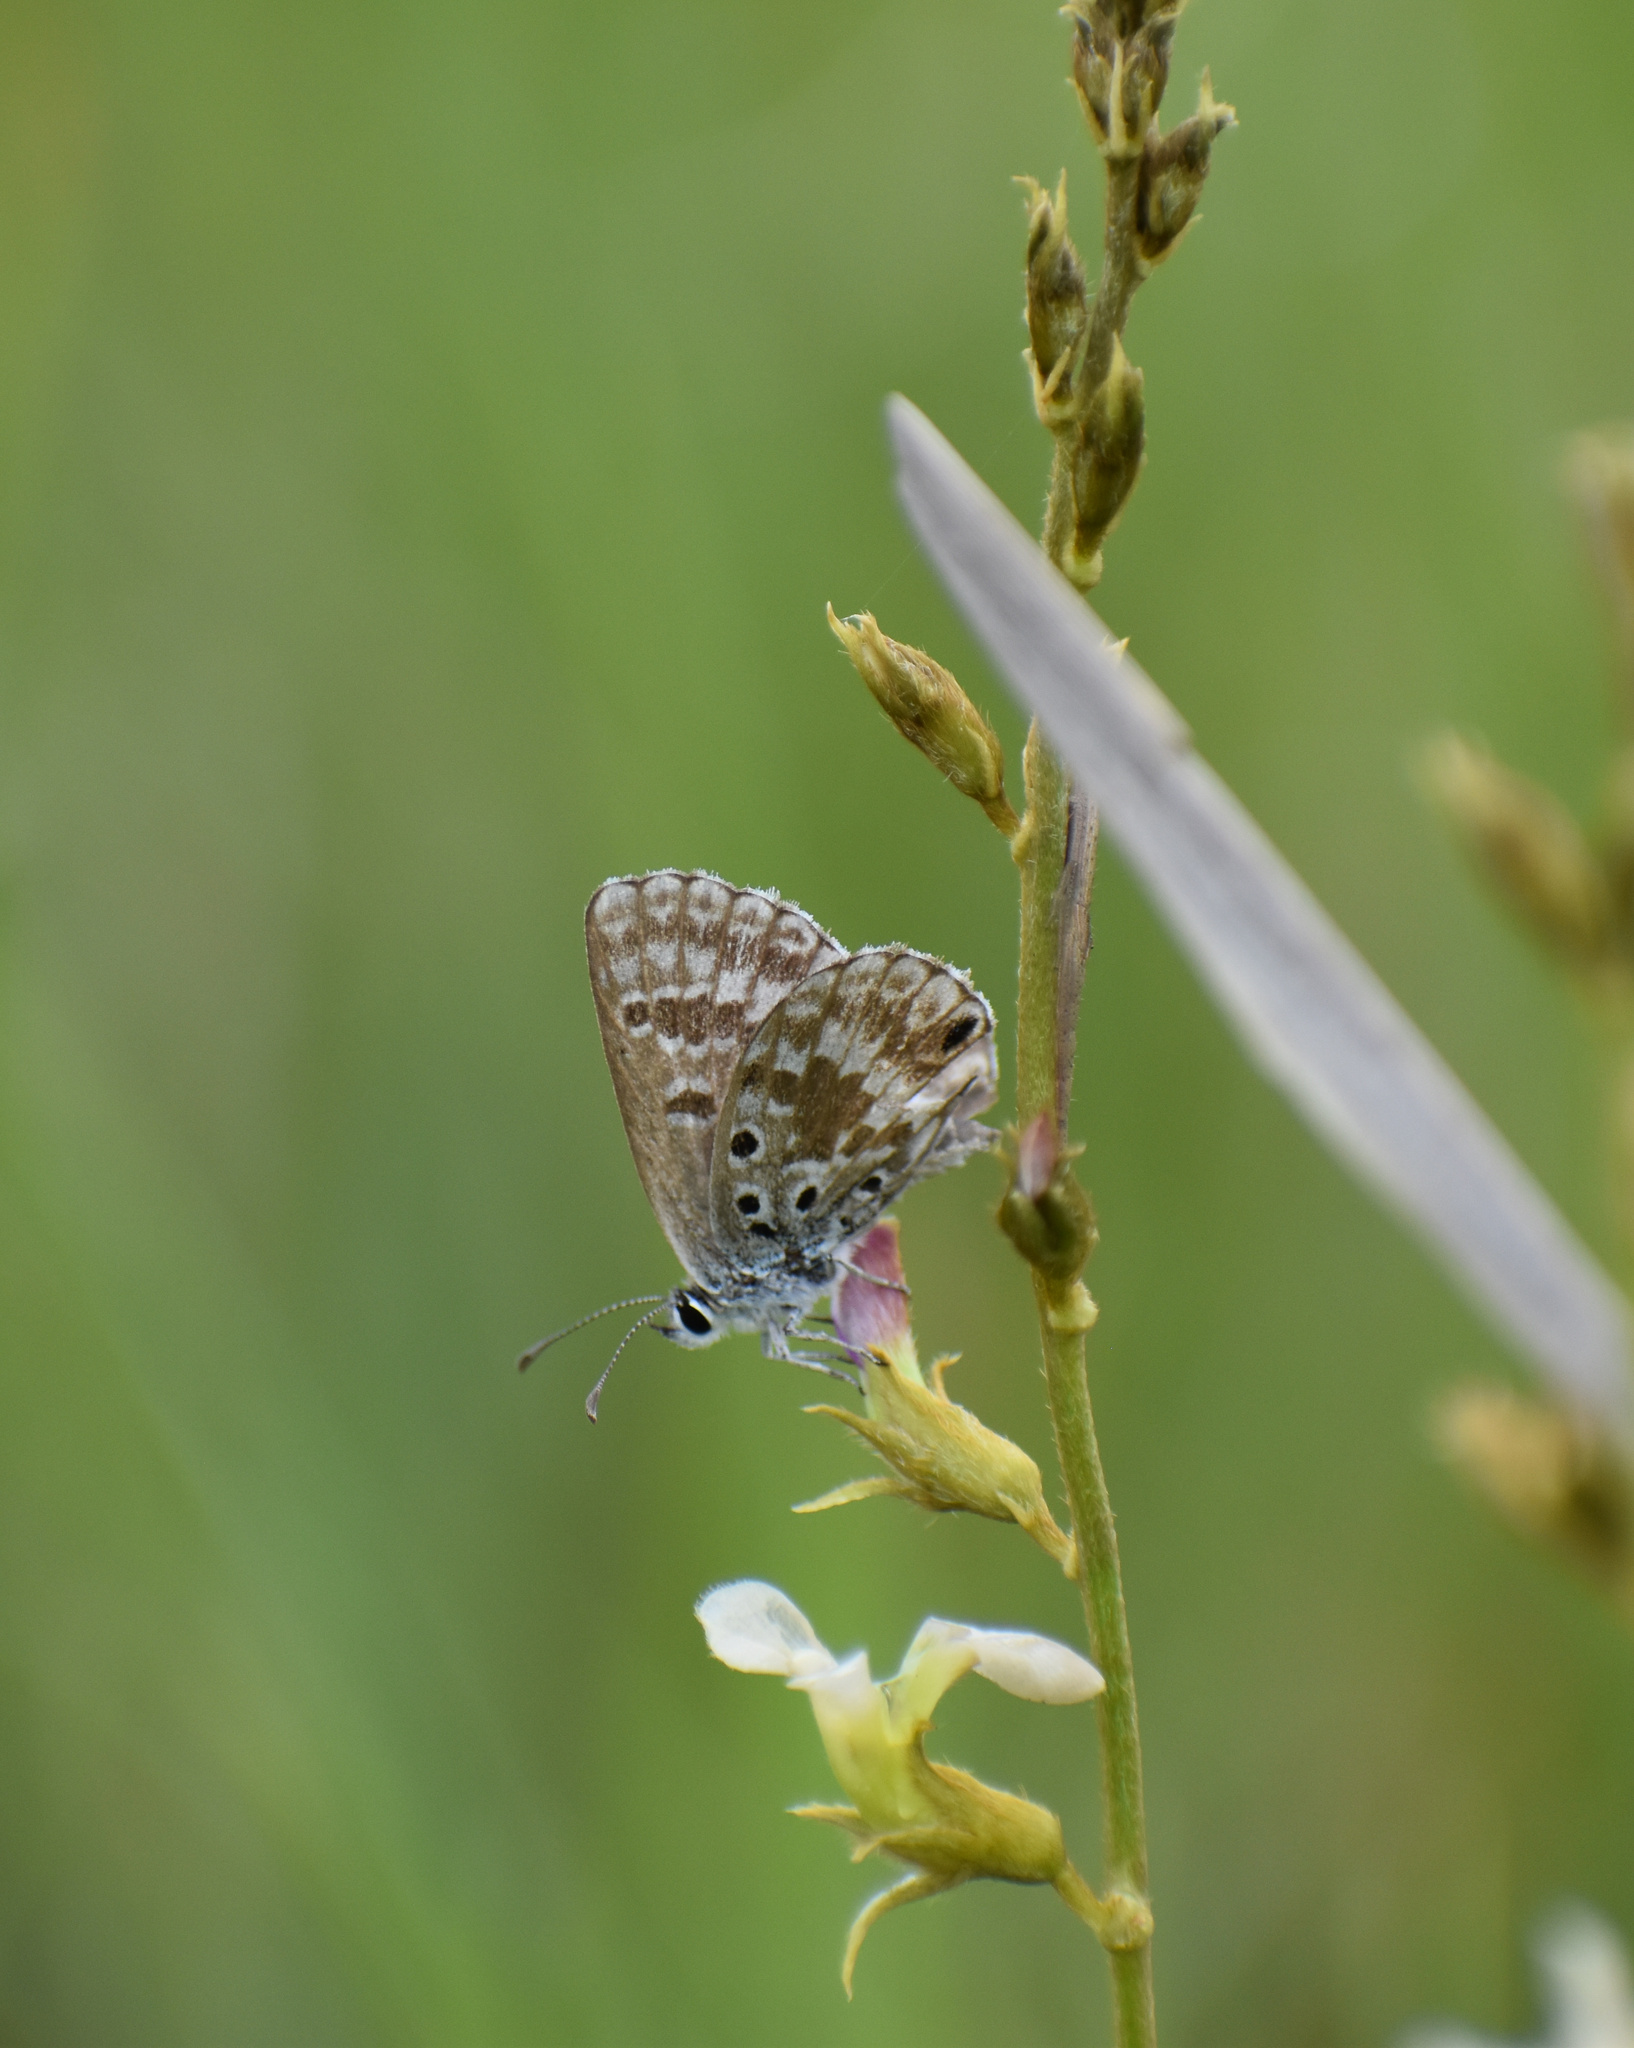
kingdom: Animalia
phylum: Arthropoda
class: Insecta
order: Lepidoptera
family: Lycaenidae
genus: Lepidochrysops
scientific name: Lepidochrysops ketsi
